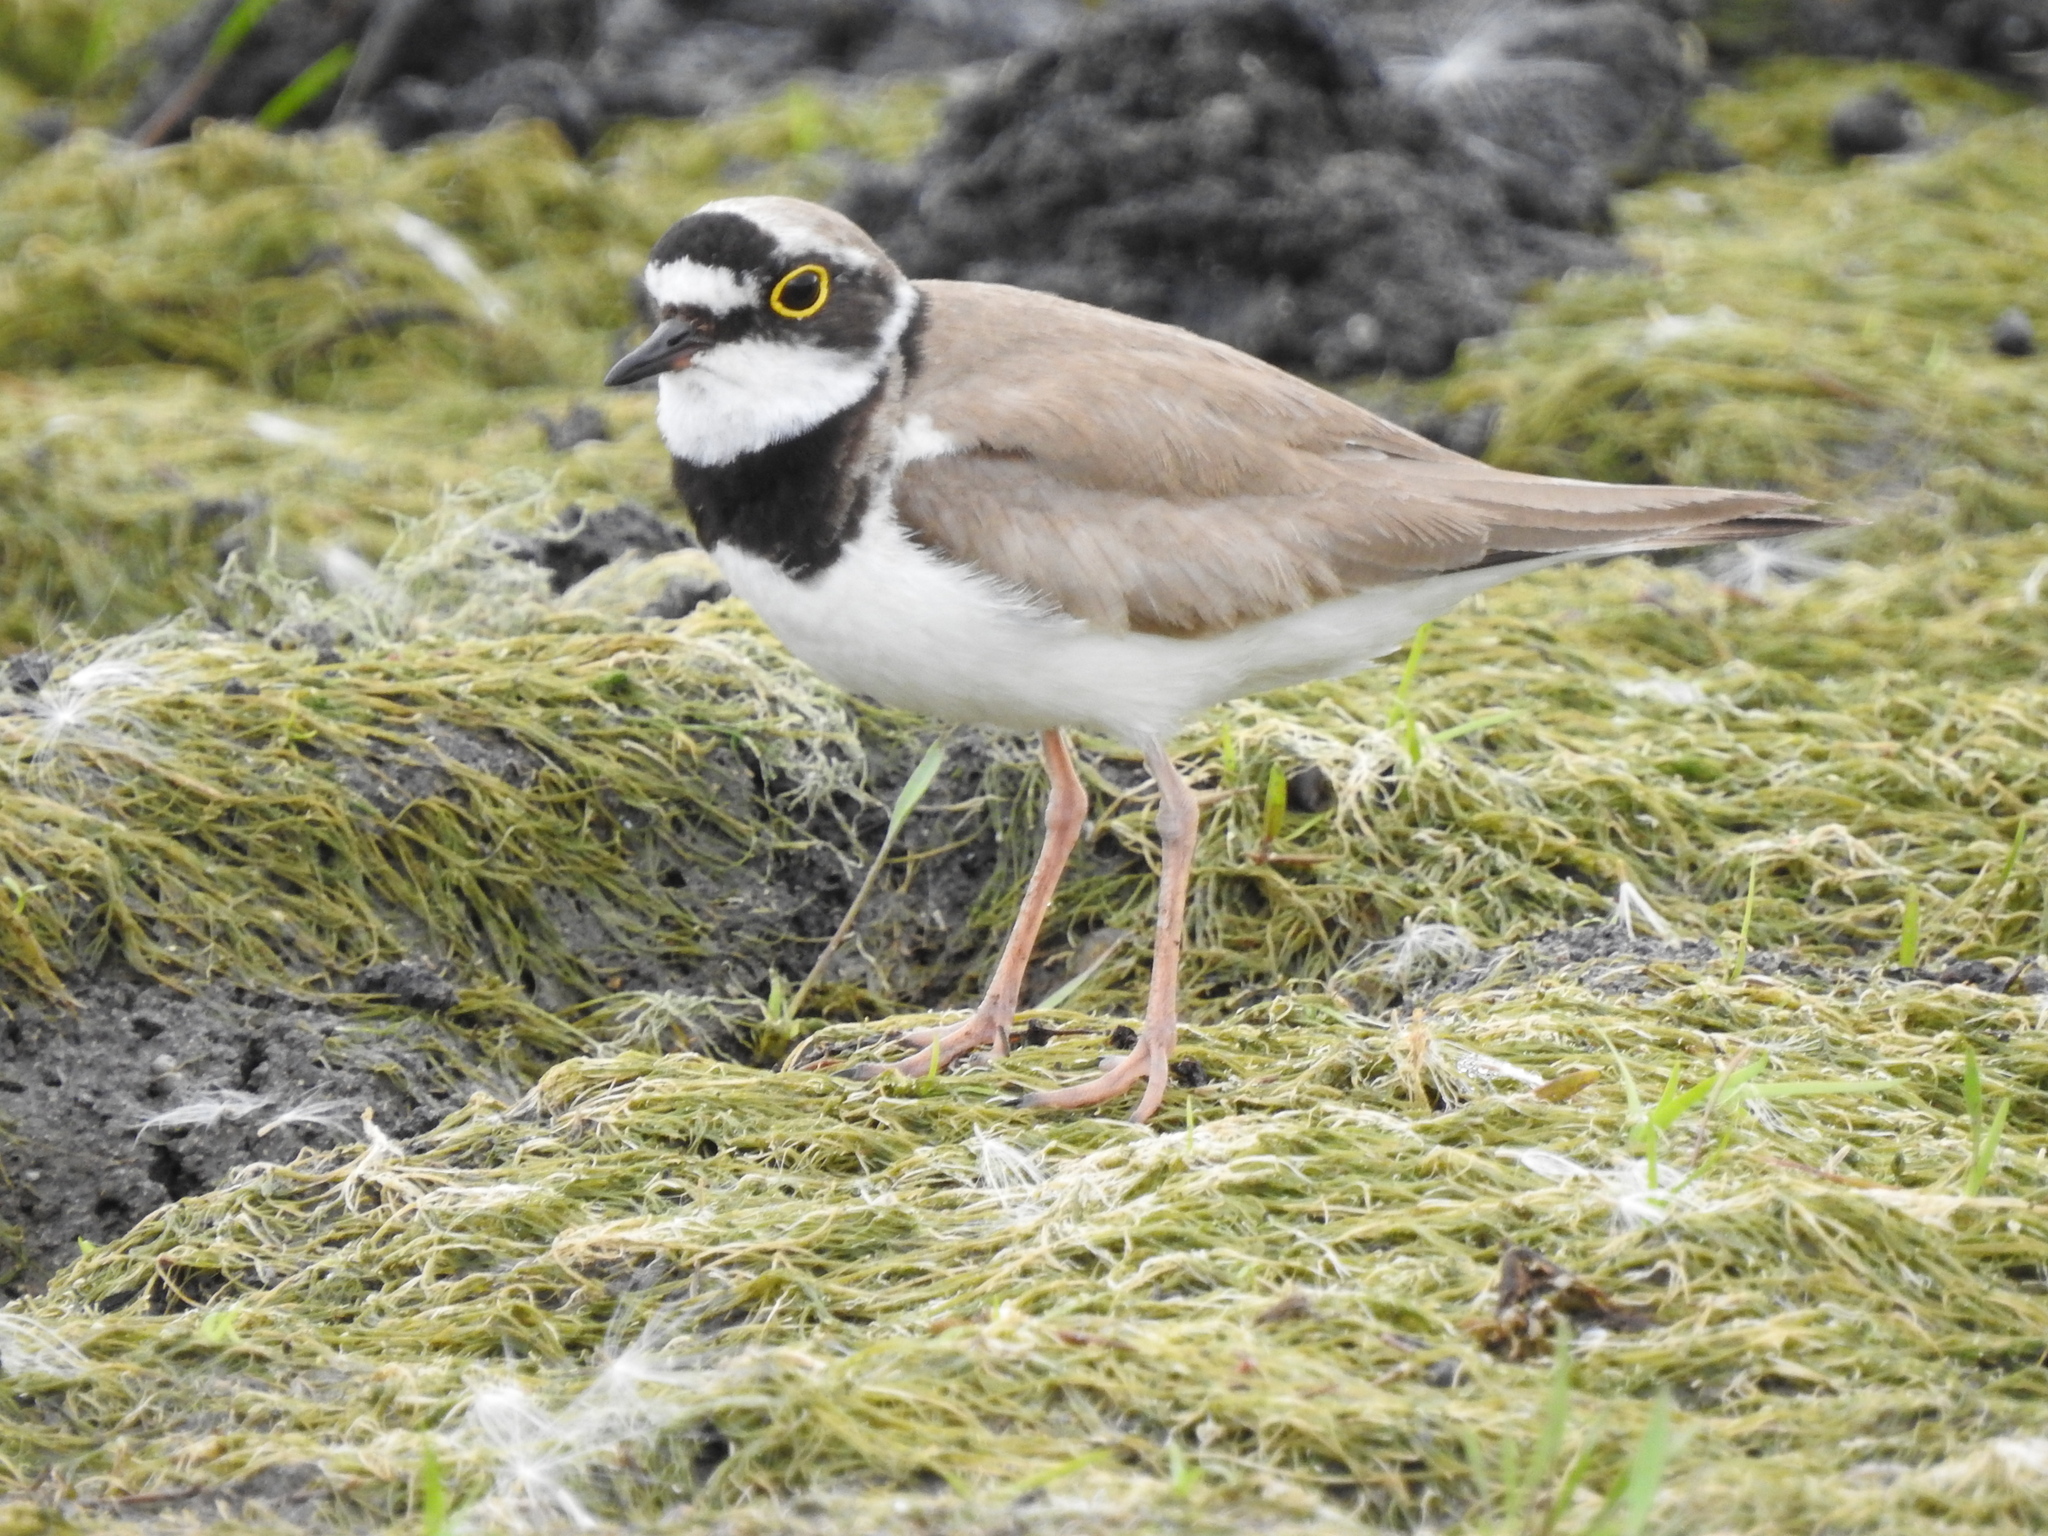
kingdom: Animalia
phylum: Chordata
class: Aves
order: Charadriiformes
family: Charadriidae
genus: Charadrius
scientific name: Charadrius dubius
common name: Little ringed plover
